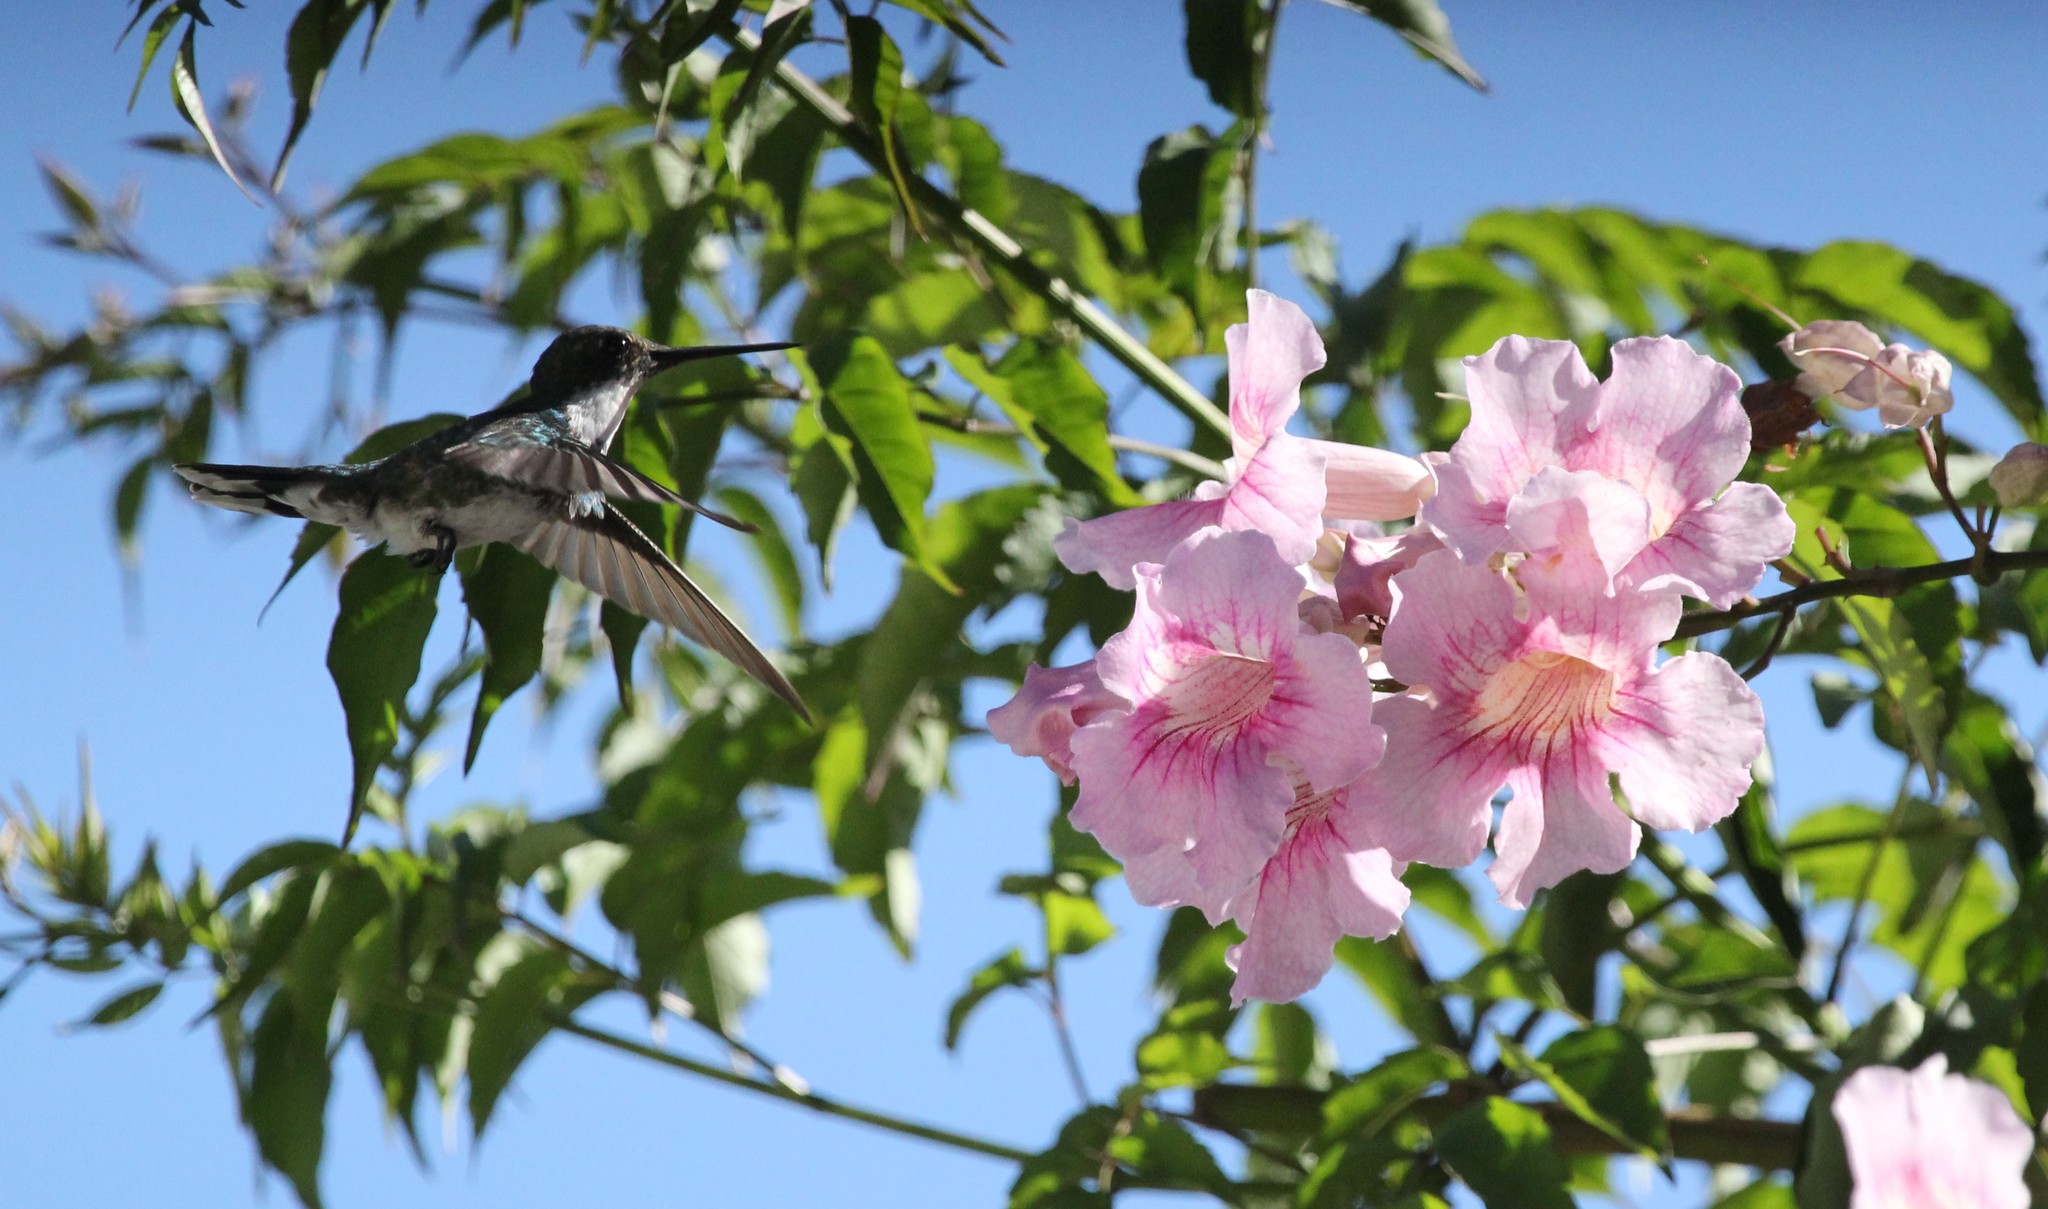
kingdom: Animalia
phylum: Chordata
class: Aves
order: Apodiformes
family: Trochilidae
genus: Leucochloris
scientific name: Leucochloris albicollis
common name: White-throated hummingbird
